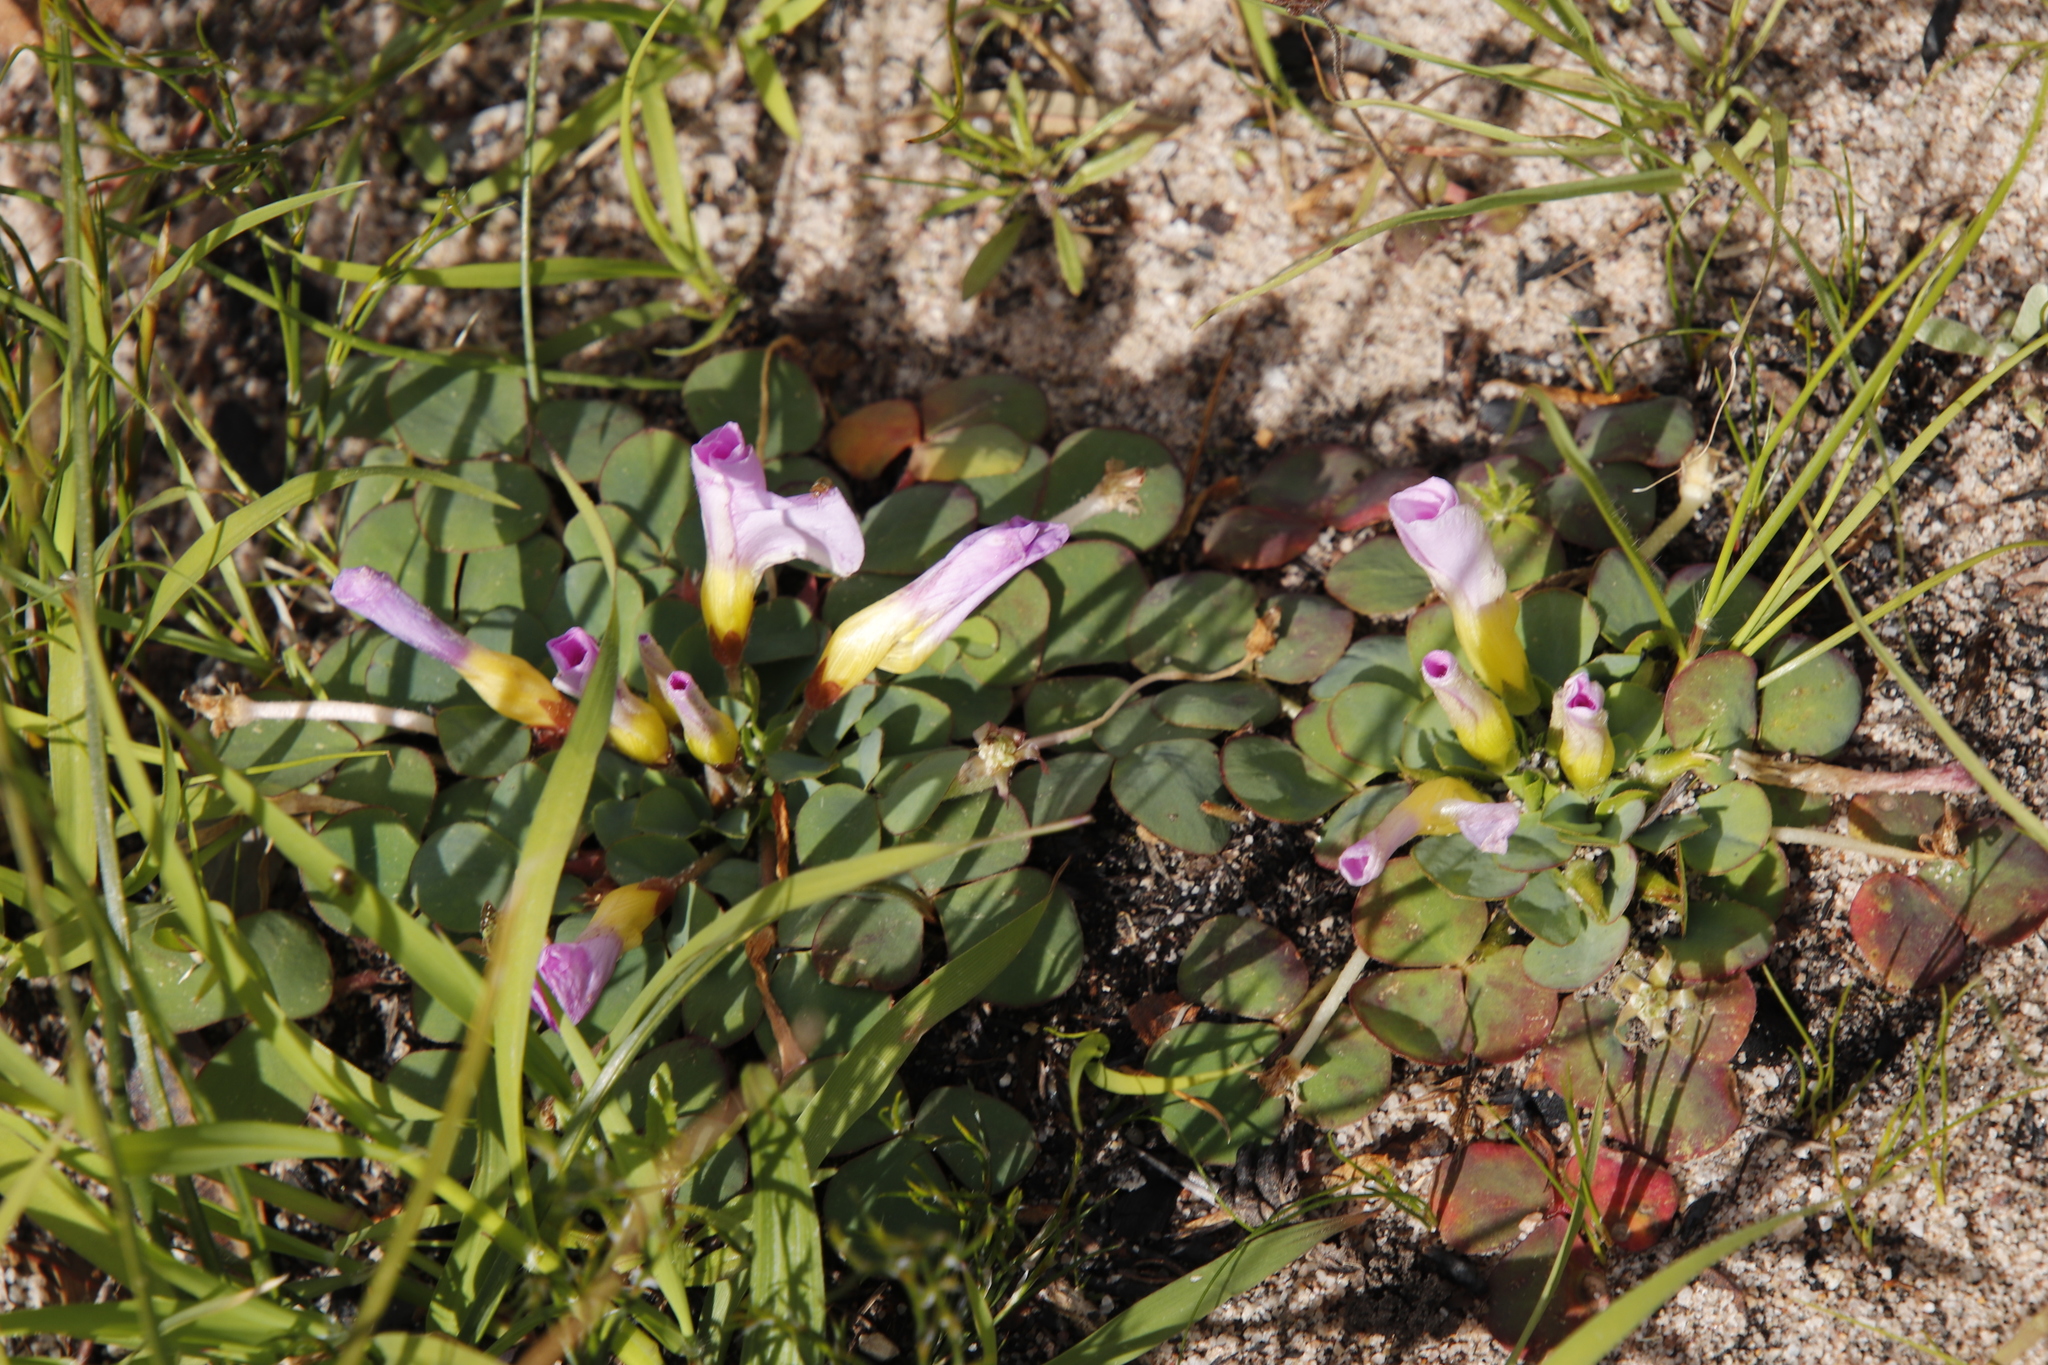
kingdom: Plantae
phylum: Tracheophyta
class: Magnoliopsida
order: Oxalidales
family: Oxalidaceae
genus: Oxalis
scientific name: Oxalis purpurea
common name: Purple woodsorrel
